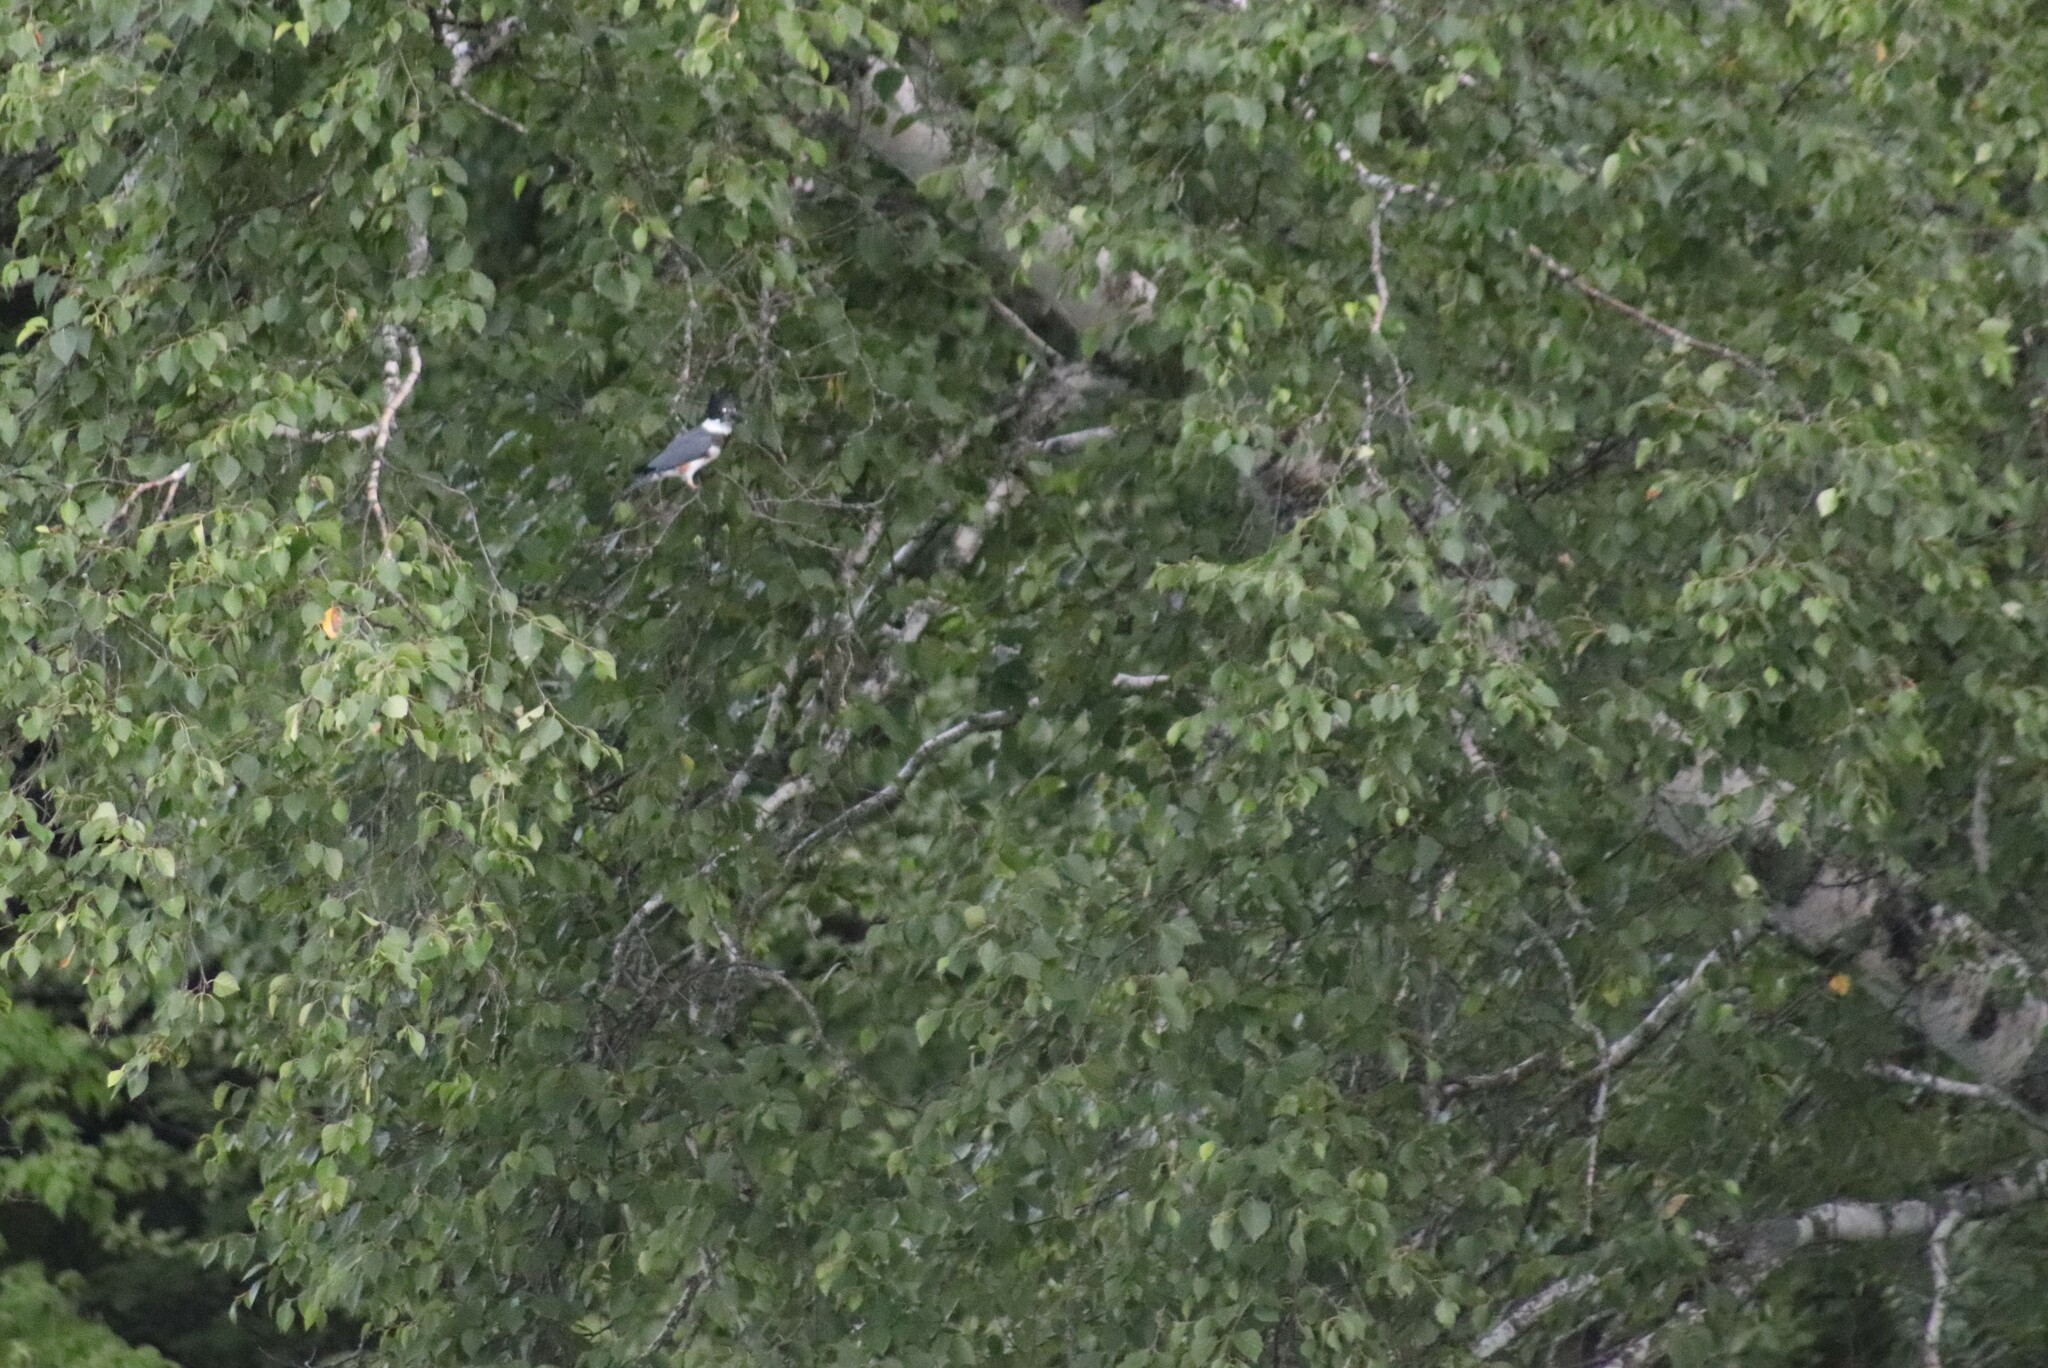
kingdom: Animalia
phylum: Chordata
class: Aves
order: Coraciiformes
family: Alcedinidae
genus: Megaceryle
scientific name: Megaceryle alcyon
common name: Belted kingfisher
